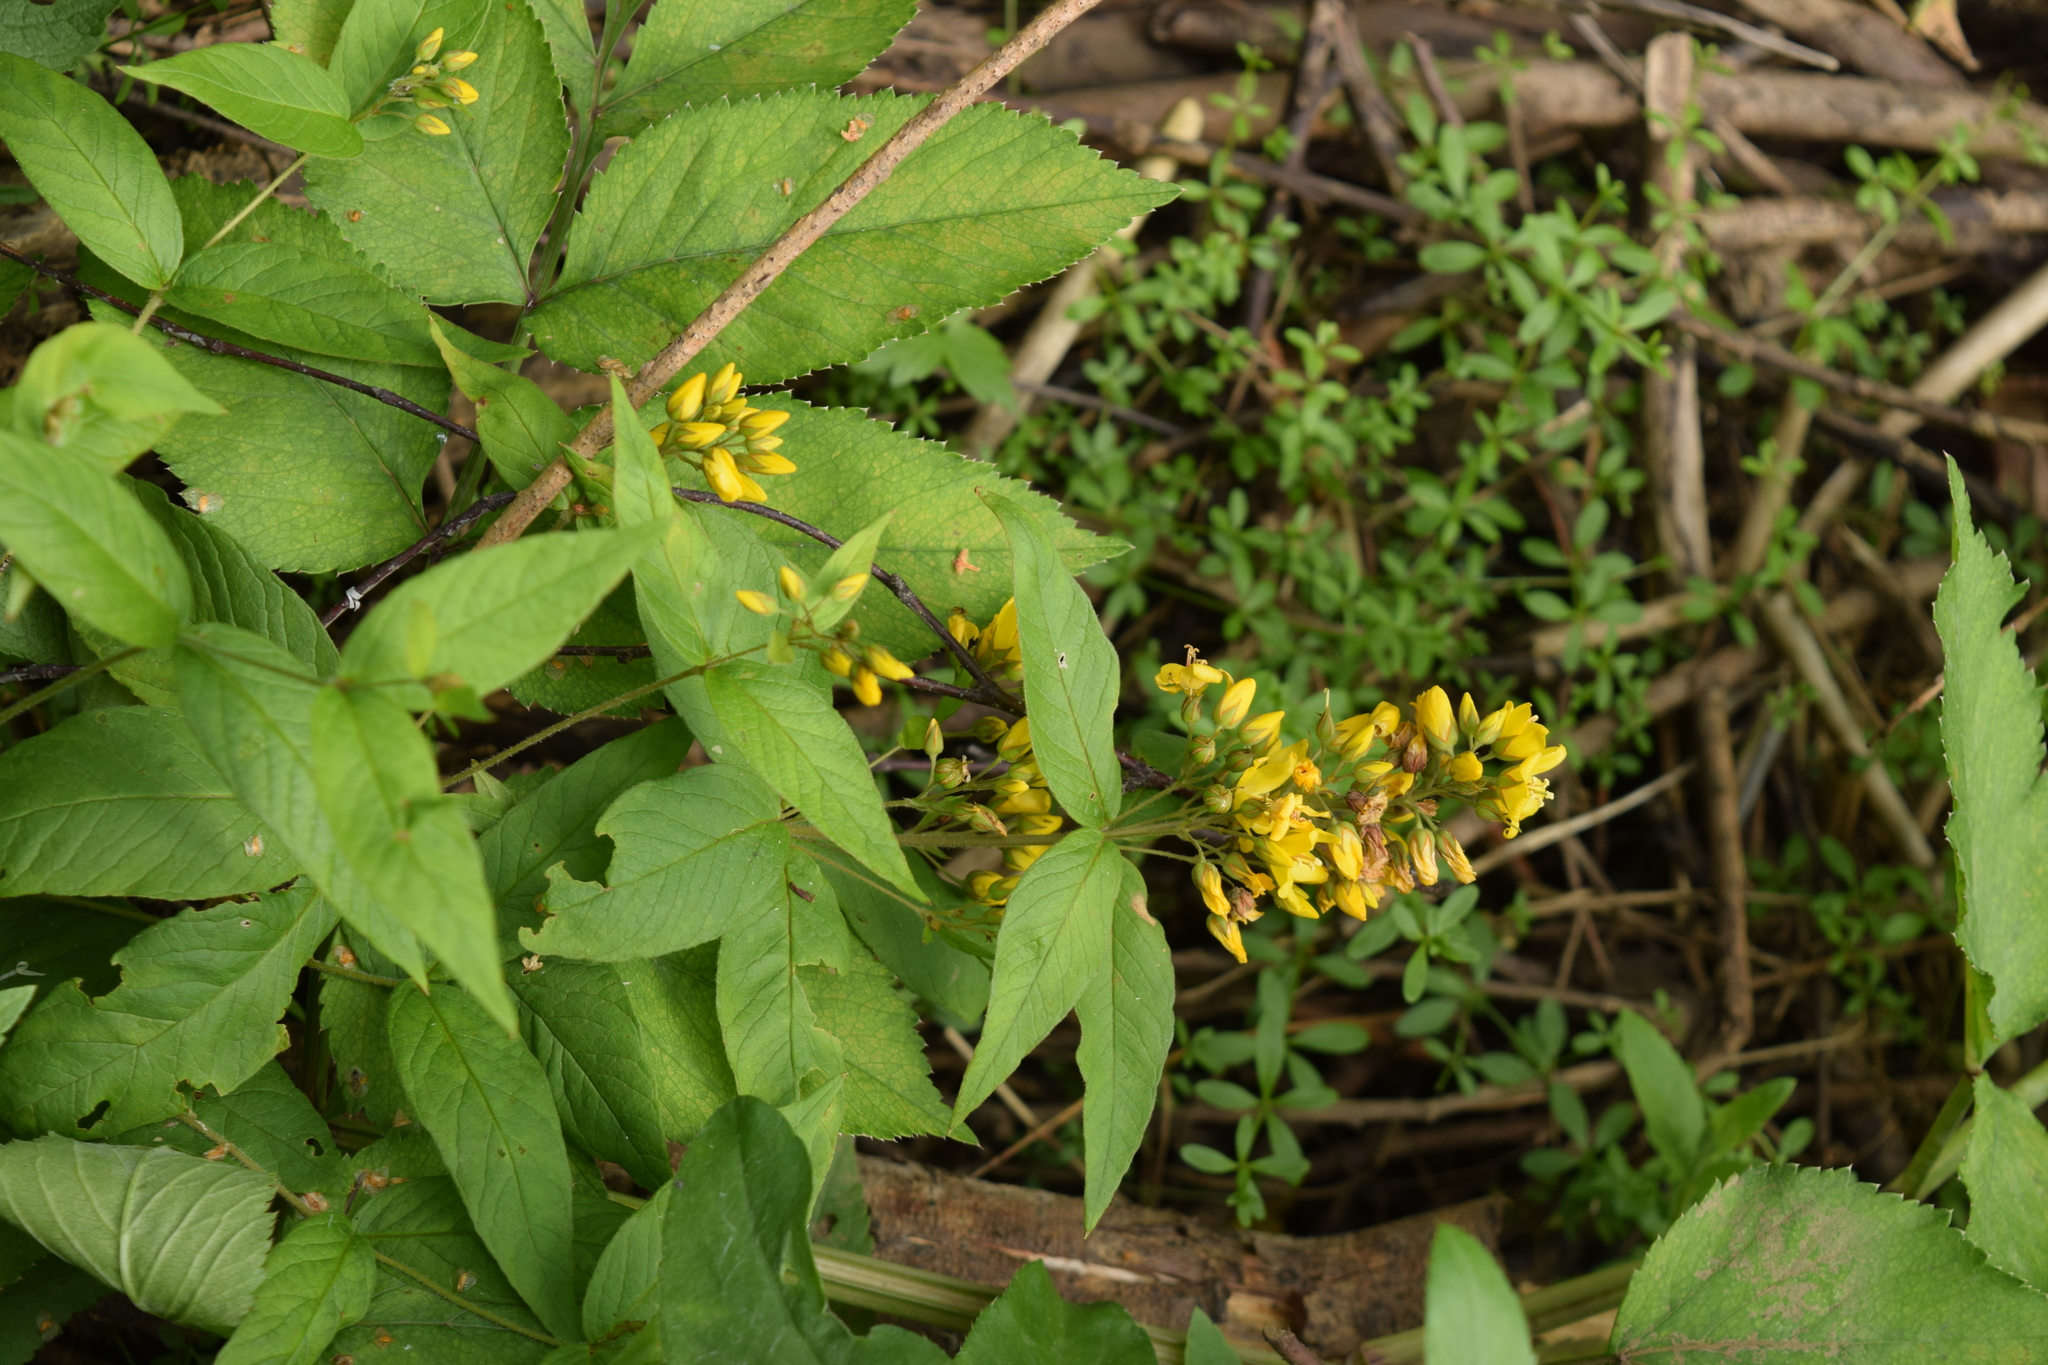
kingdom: Plantae
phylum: Tracheophyta
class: Magnoliopsida
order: Ericales
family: Primulaceae
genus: Lysimachia
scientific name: Lysimachia vulgaris
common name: Yellow loosestrife
